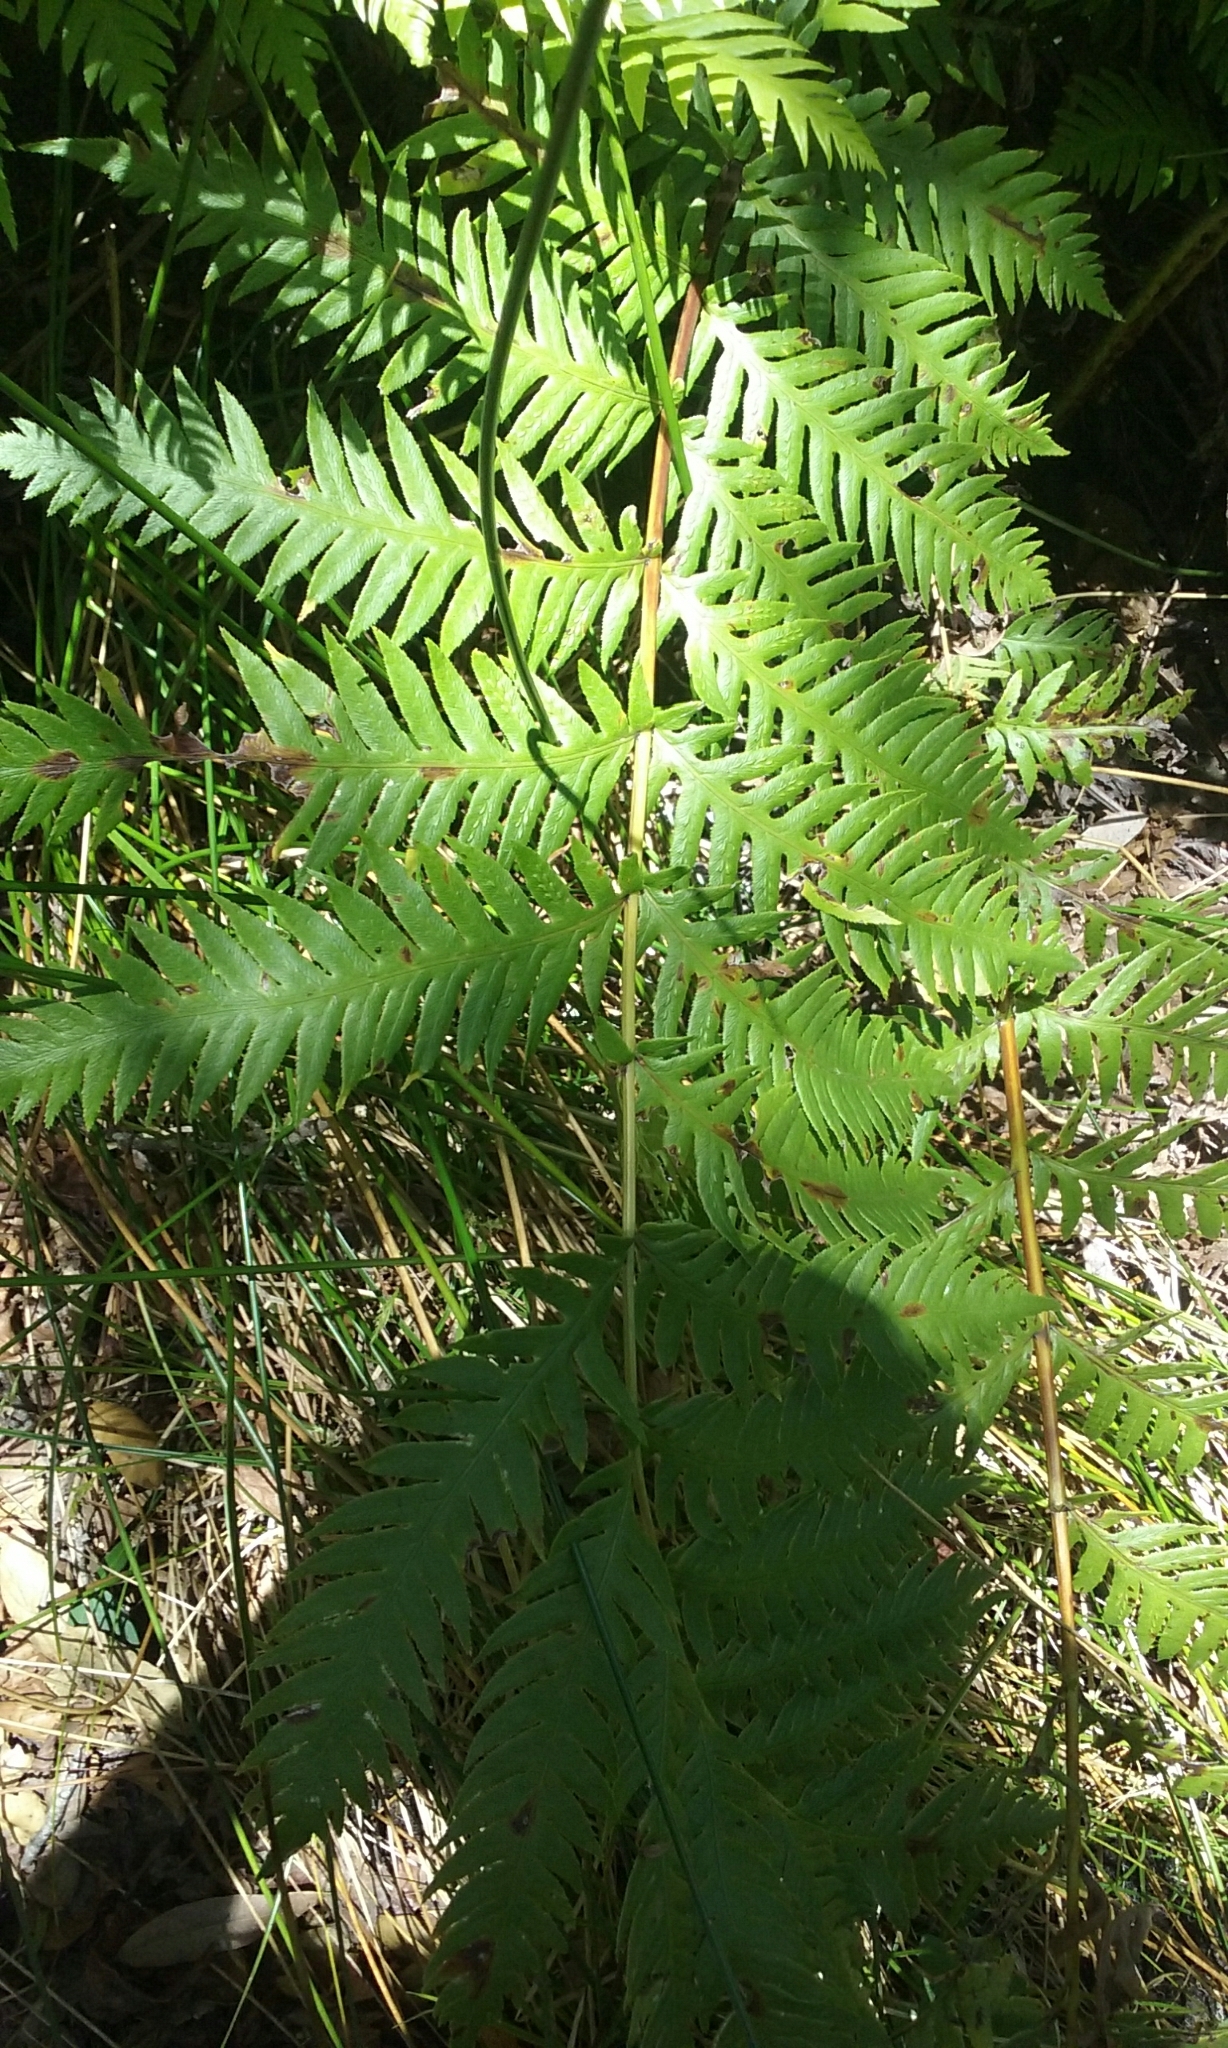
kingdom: Plantae
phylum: Tracheophyta
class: Polypodiopsida
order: Polypodiales
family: Blechnaceae
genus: Woodwardia
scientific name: Woodwardia fimbriata
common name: Giant chain fern
